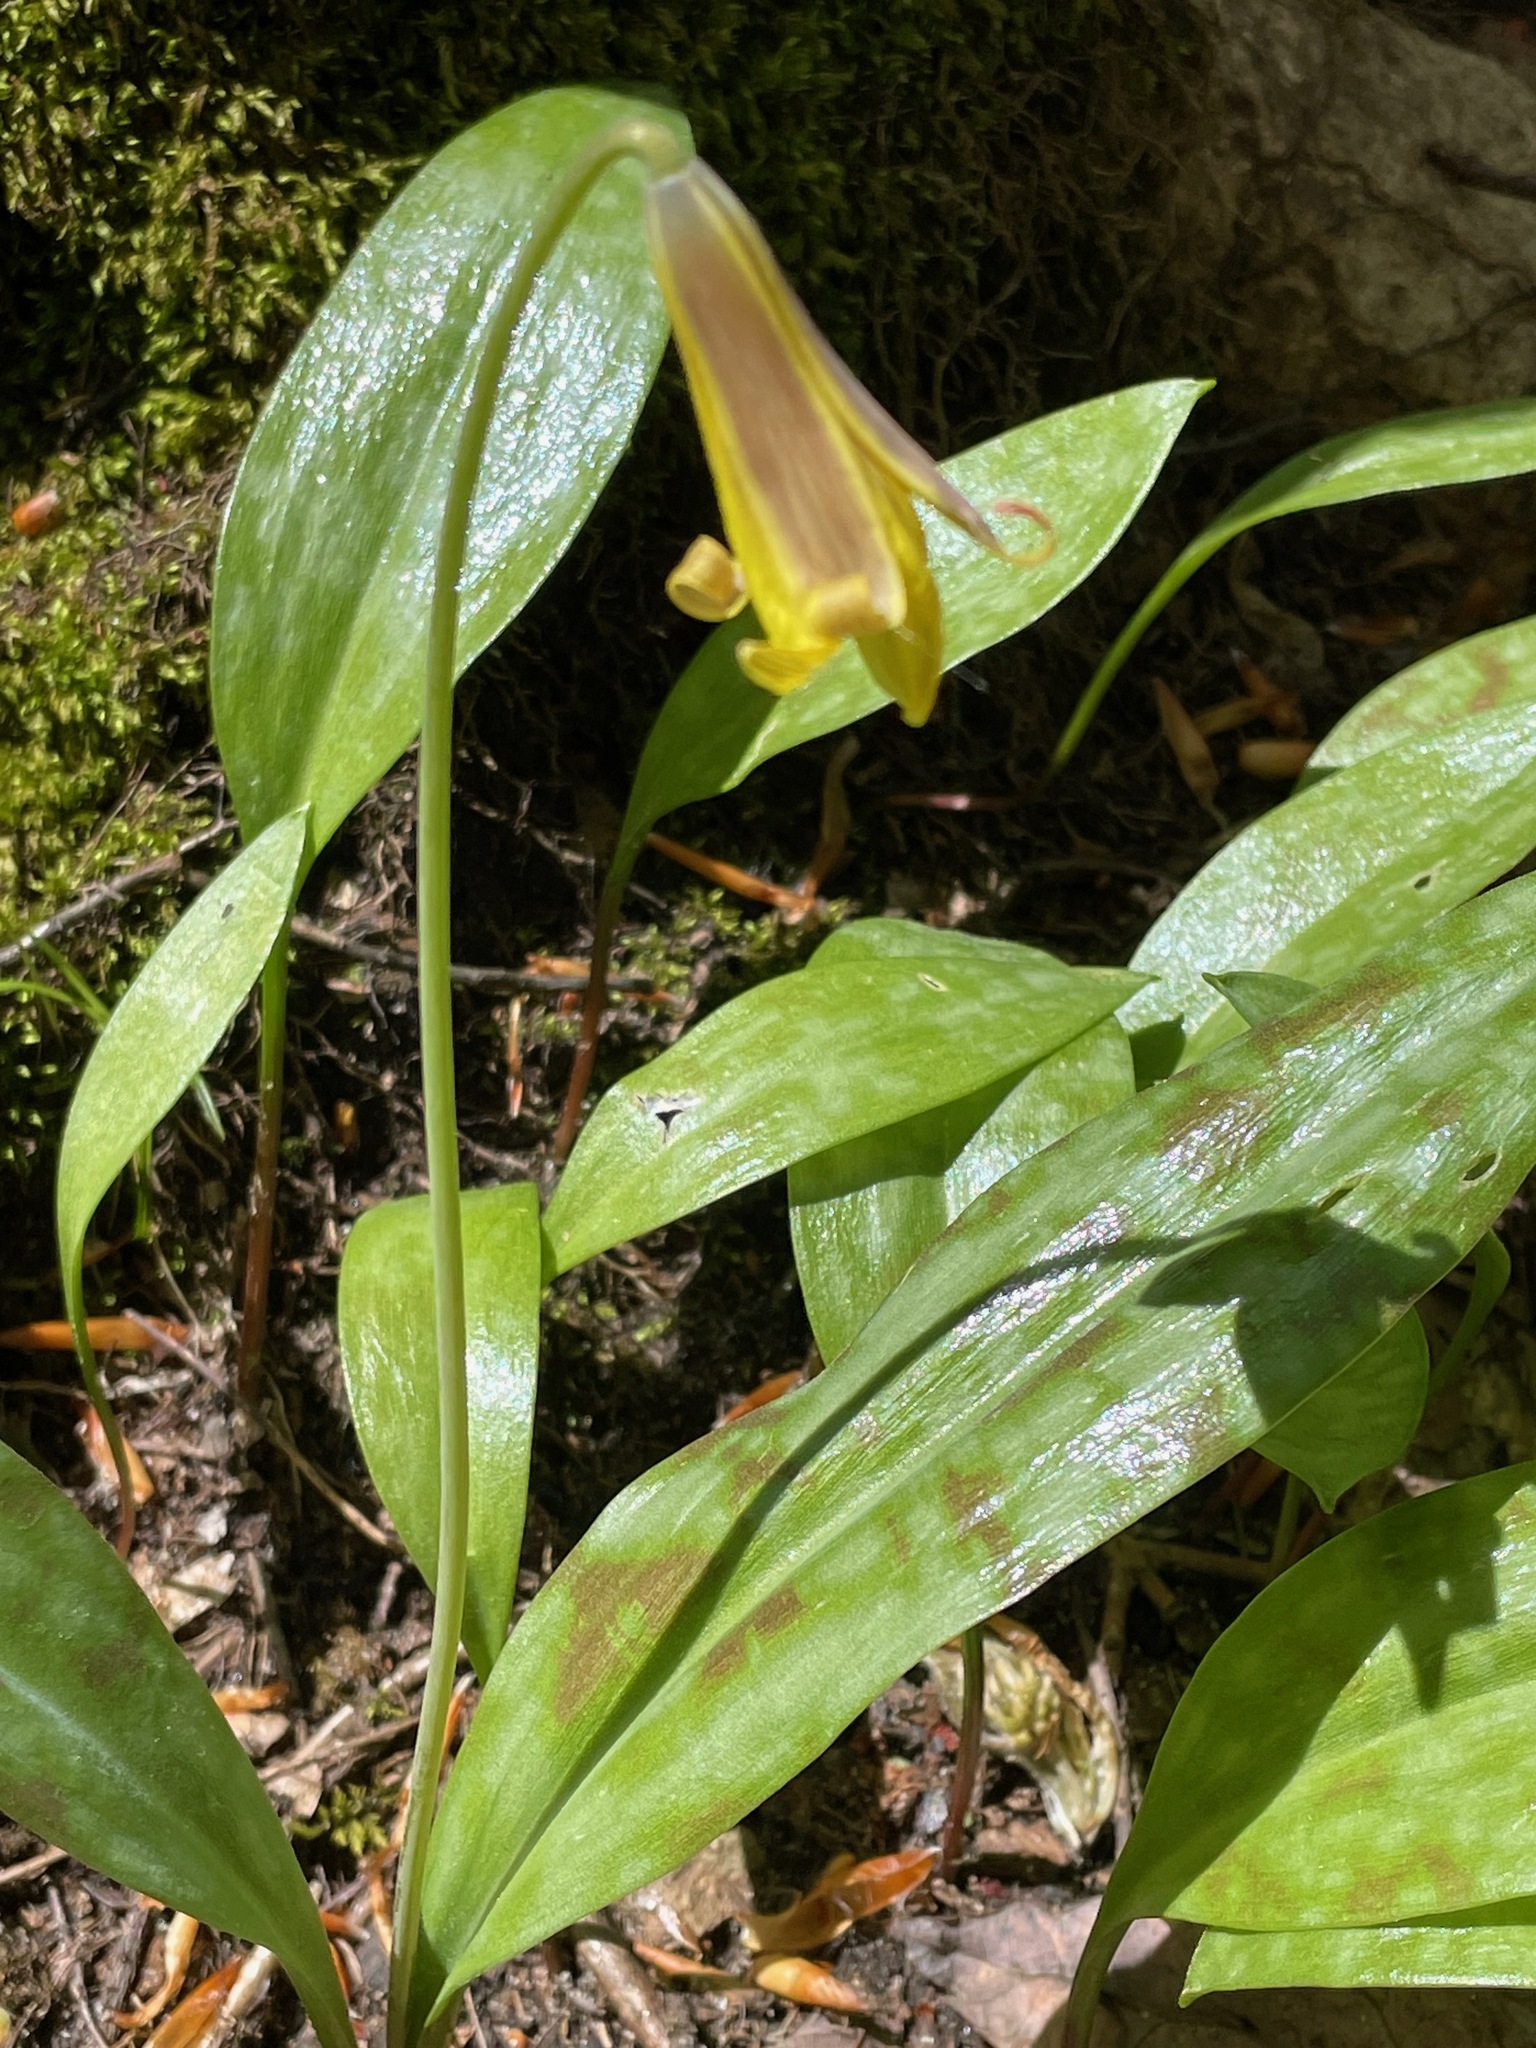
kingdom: Plantae
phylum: Tracheophyta
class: Liliopsida
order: Liliales
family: Liliaceae
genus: Erythronium
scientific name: Erythronium americanum
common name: Yellow adder's-tongue
